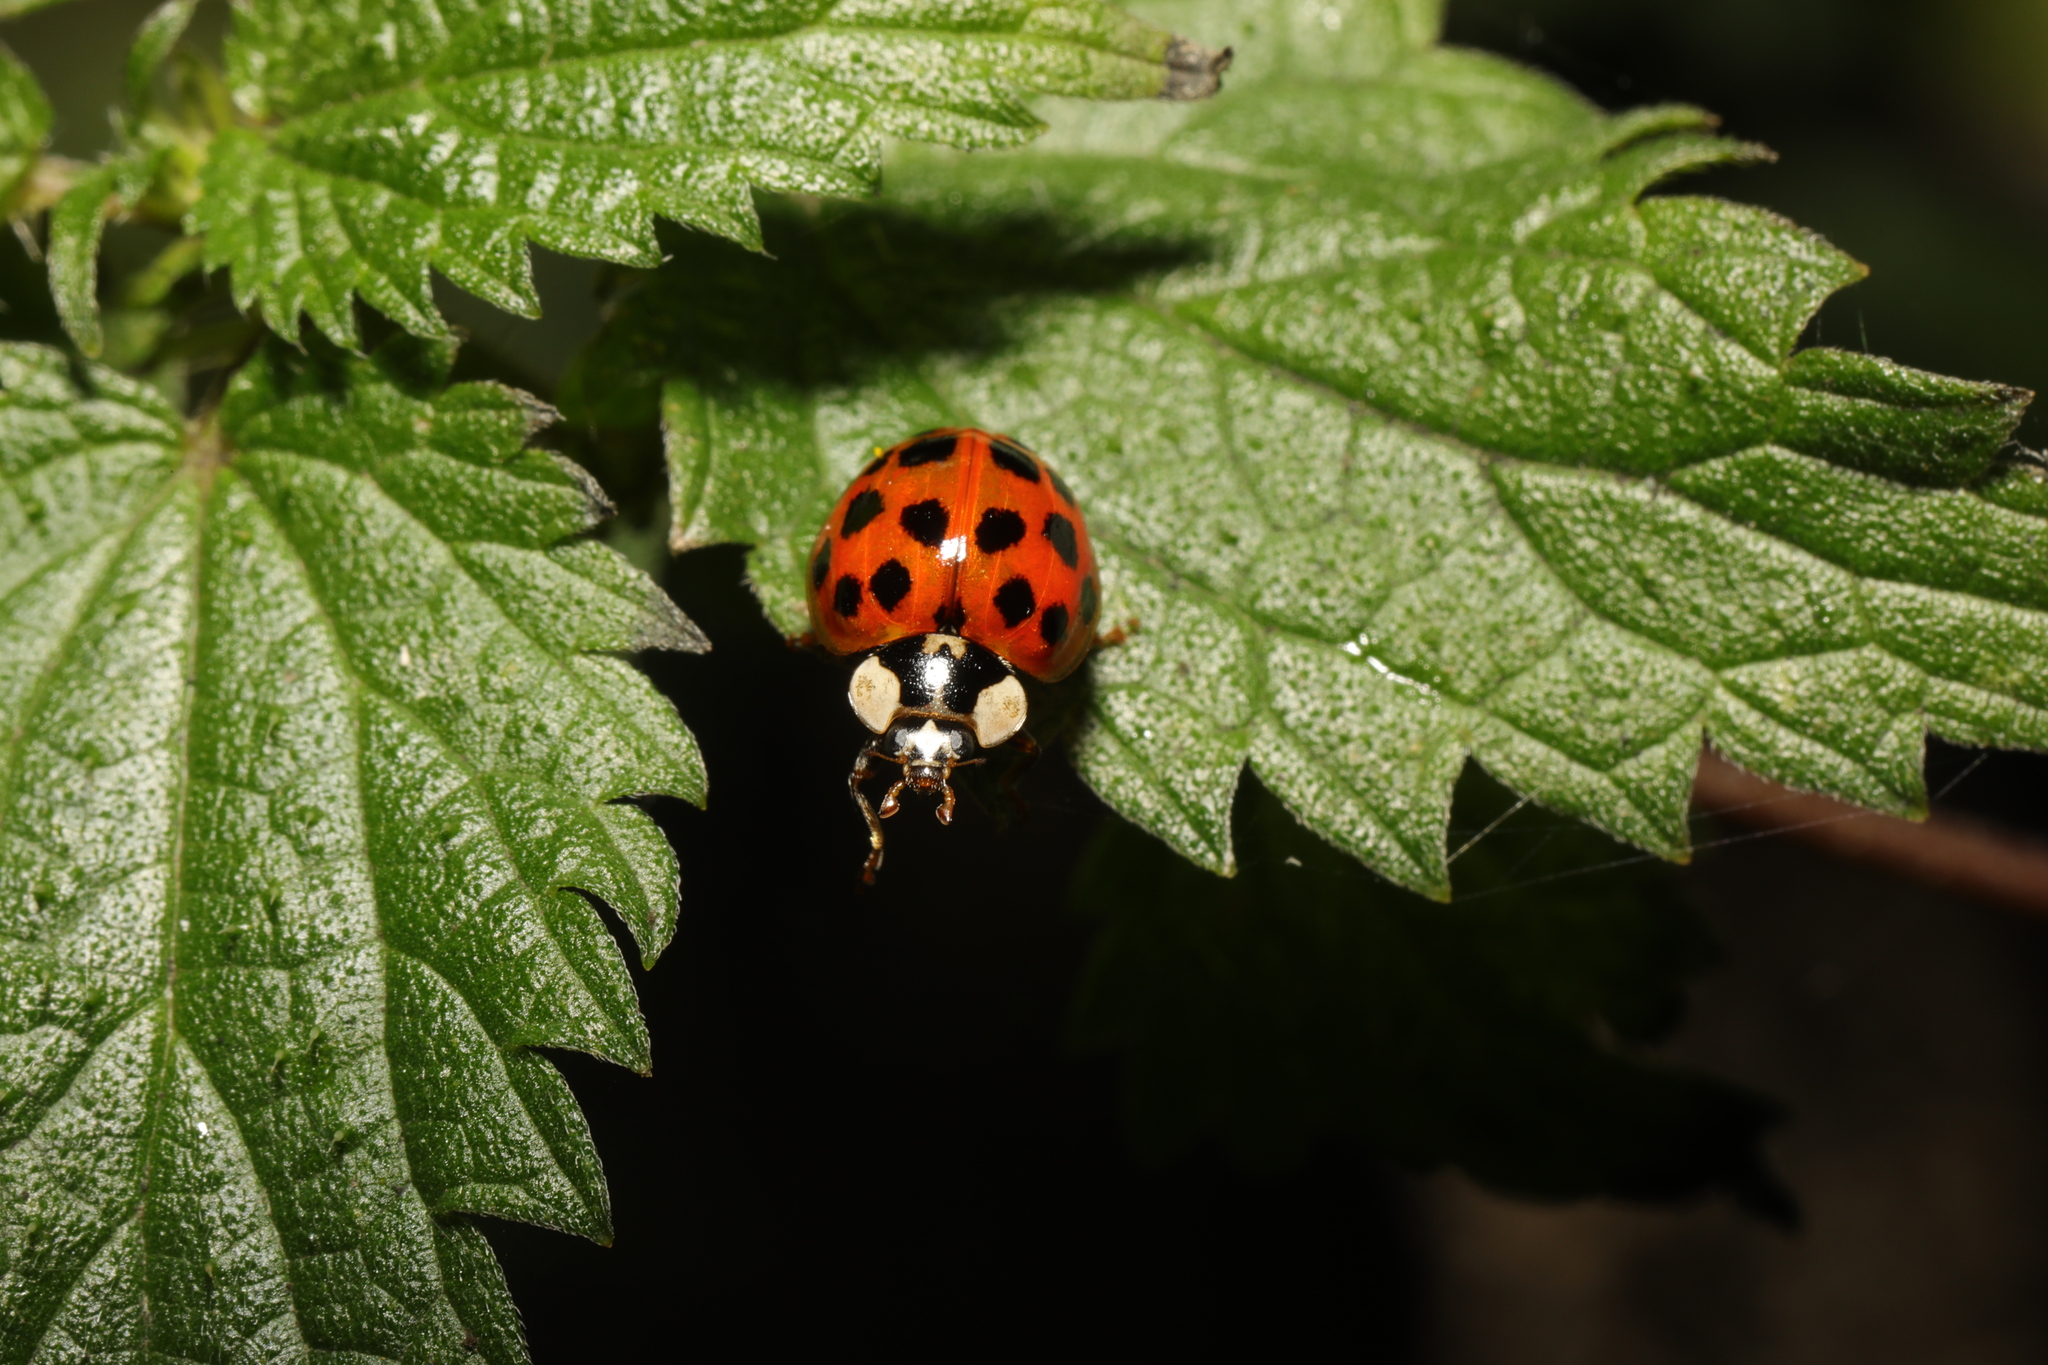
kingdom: Animalia
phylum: Arthropoda
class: Insecta
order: Coleoptera
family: Coccinellidae
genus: Harmonia
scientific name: Harmonia axyridis
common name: Harlequin ladybird
